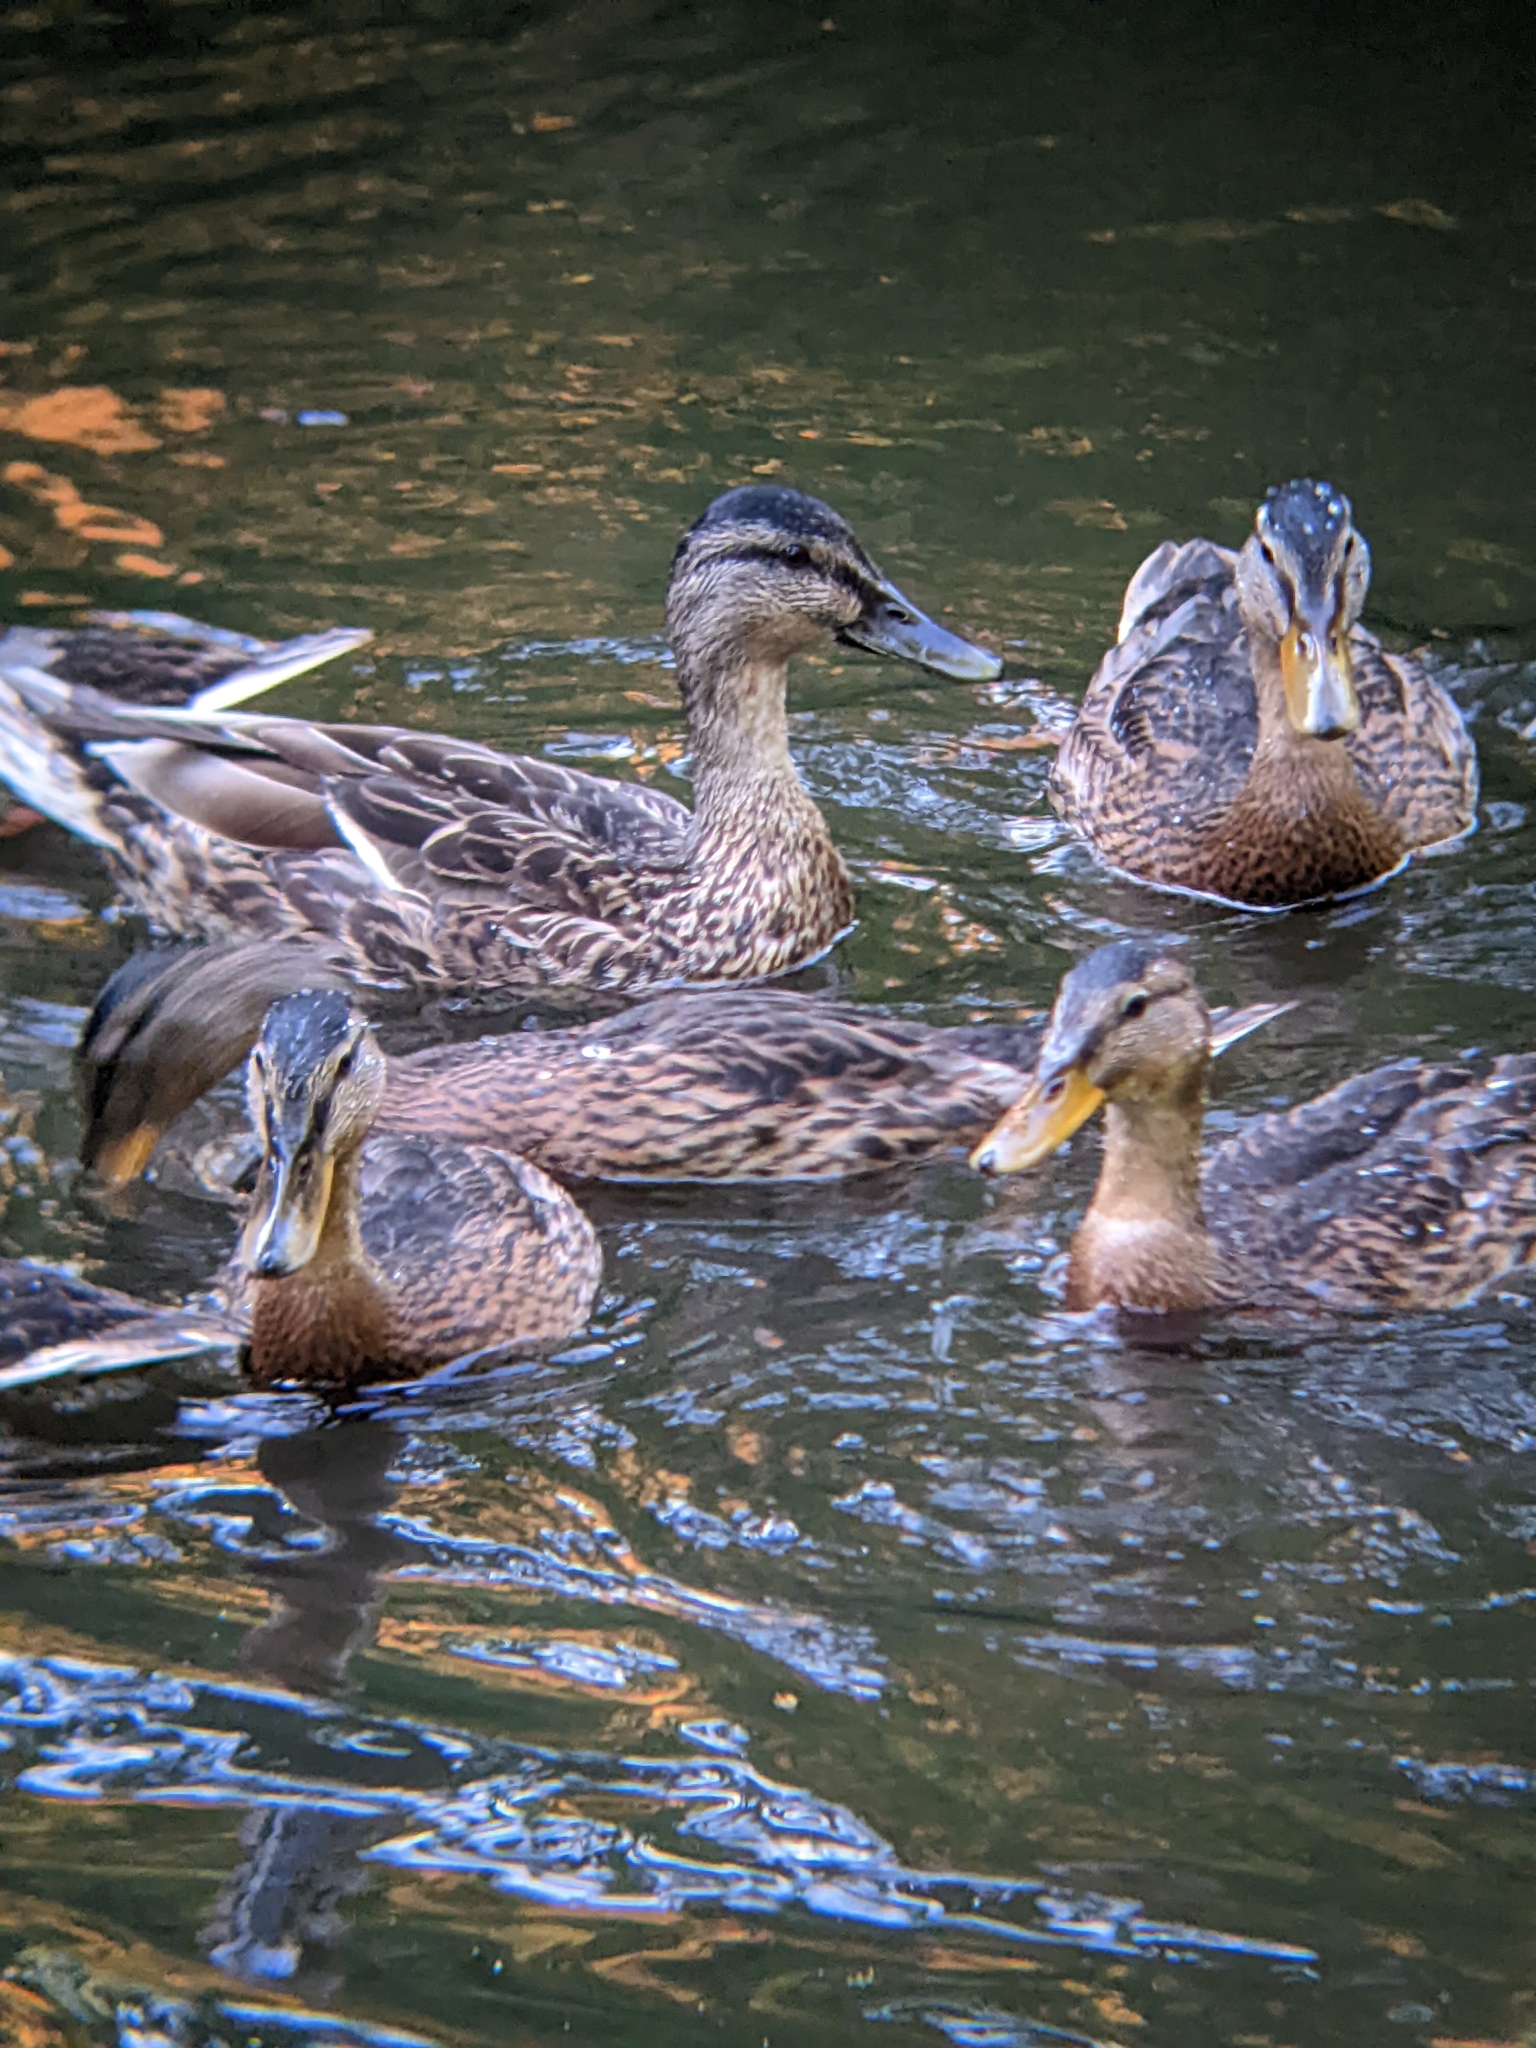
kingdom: Animalia
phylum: Chordata
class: Aves
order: Anseriformes
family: Anatidae
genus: Anas
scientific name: Anas platyrhynchos
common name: Mallard
